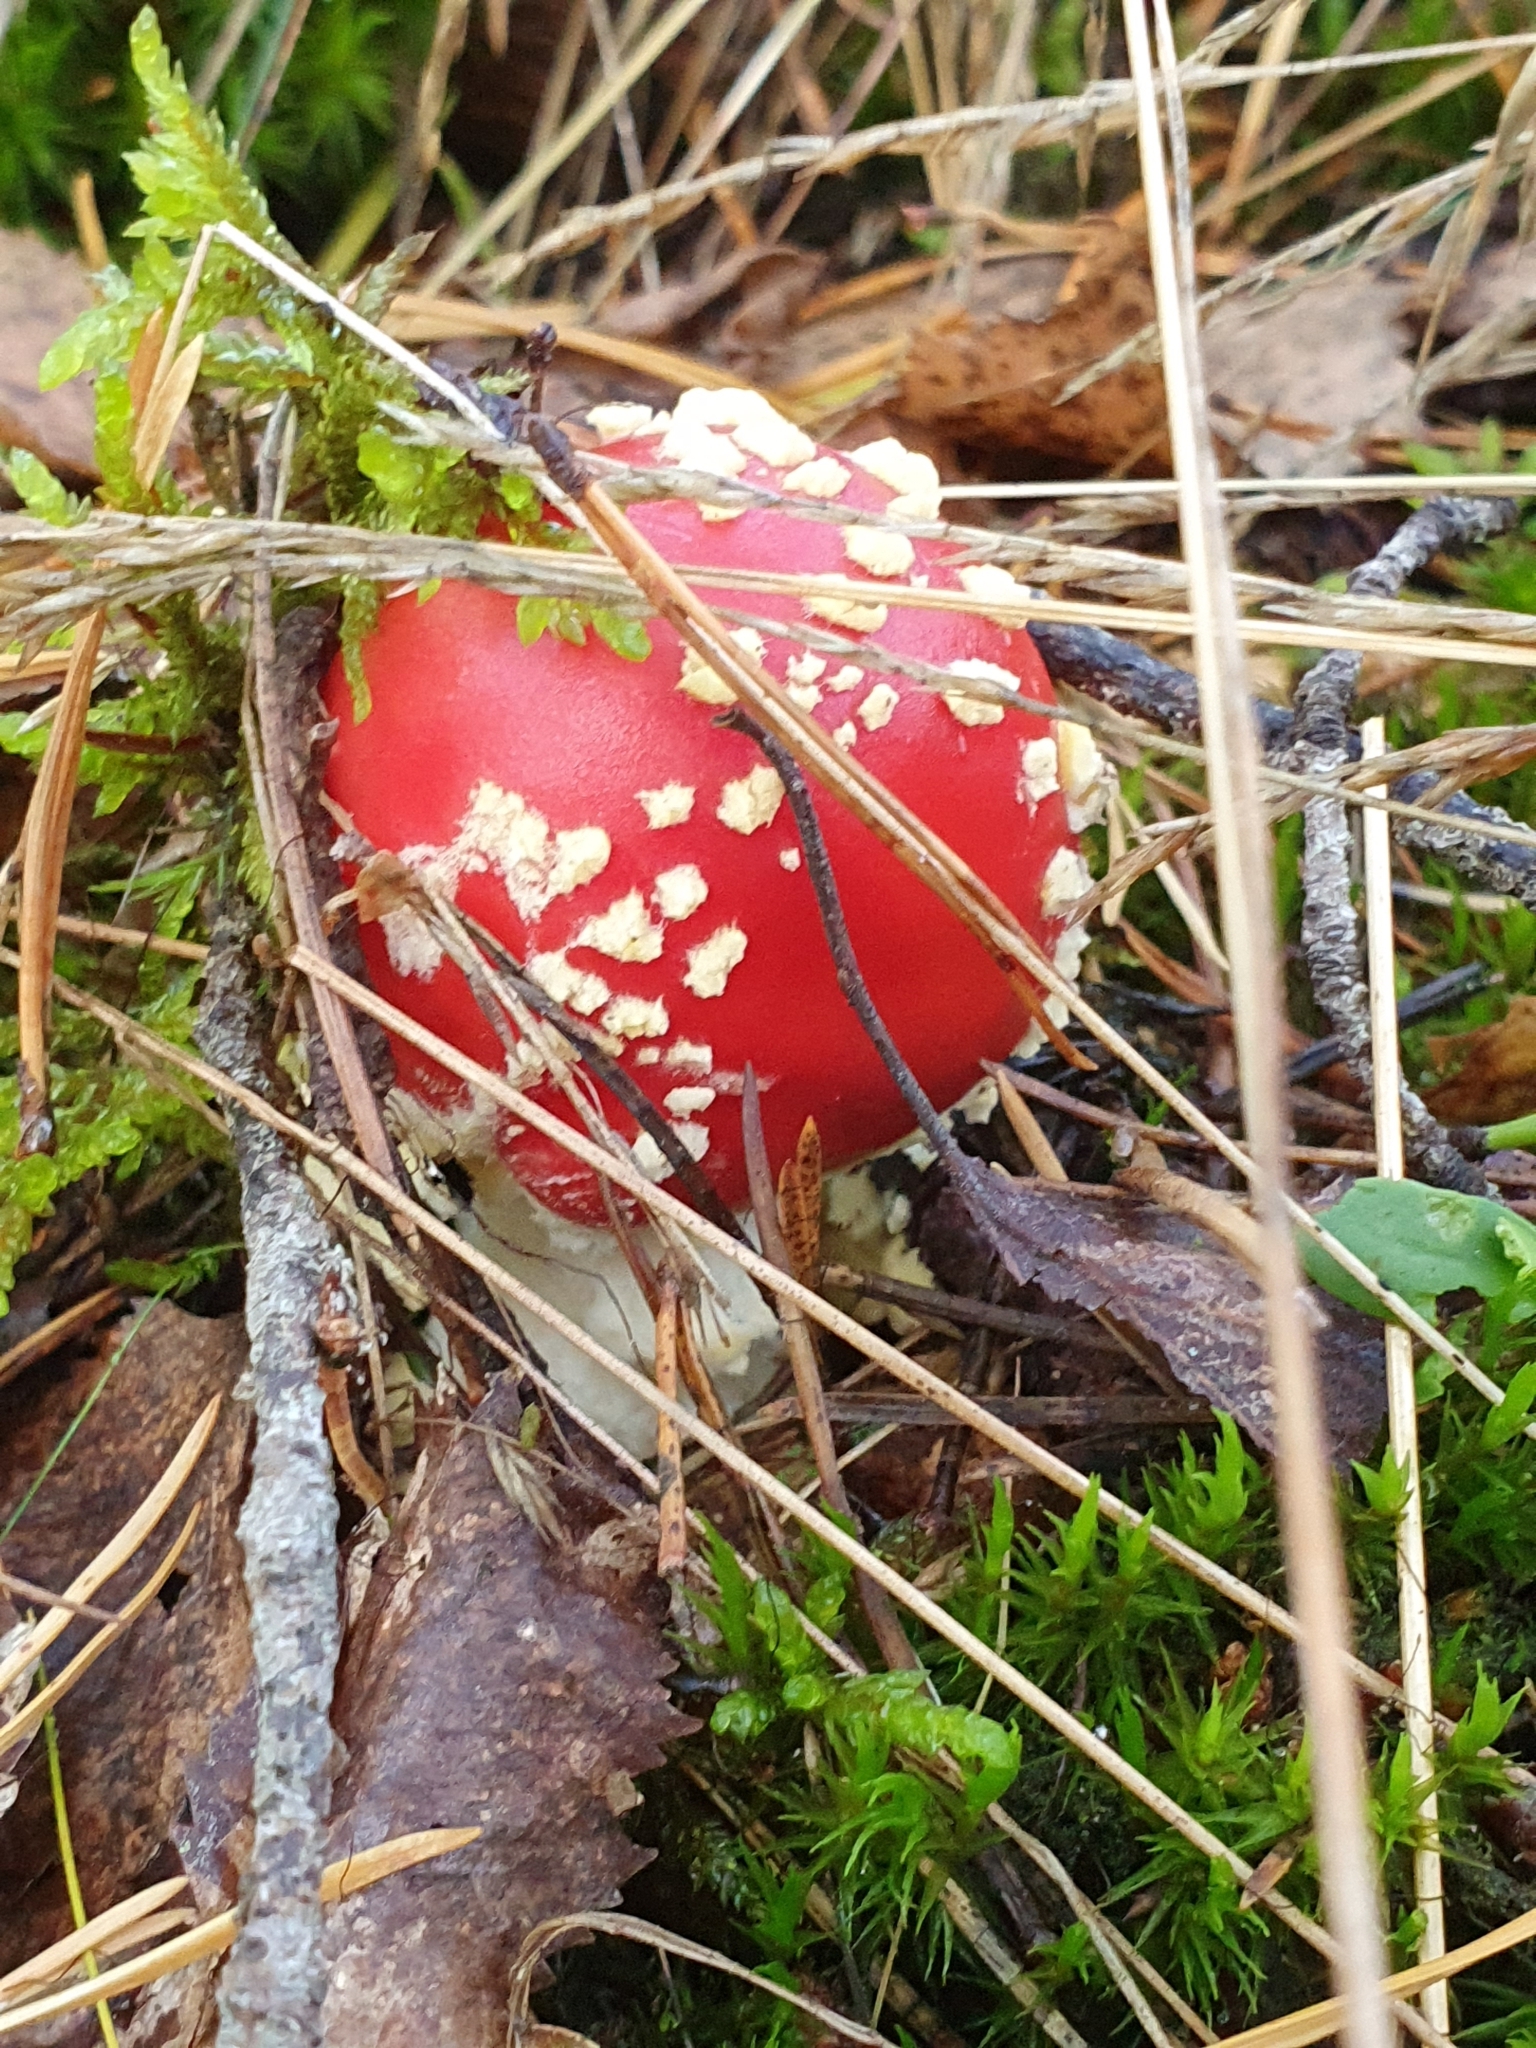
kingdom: Fungi
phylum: Basidiomycota
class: Agaricomycetes
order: Agaricales
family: Amanitaceae
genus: Amanita
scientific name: Amanita muscaria
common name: Fly agaric
